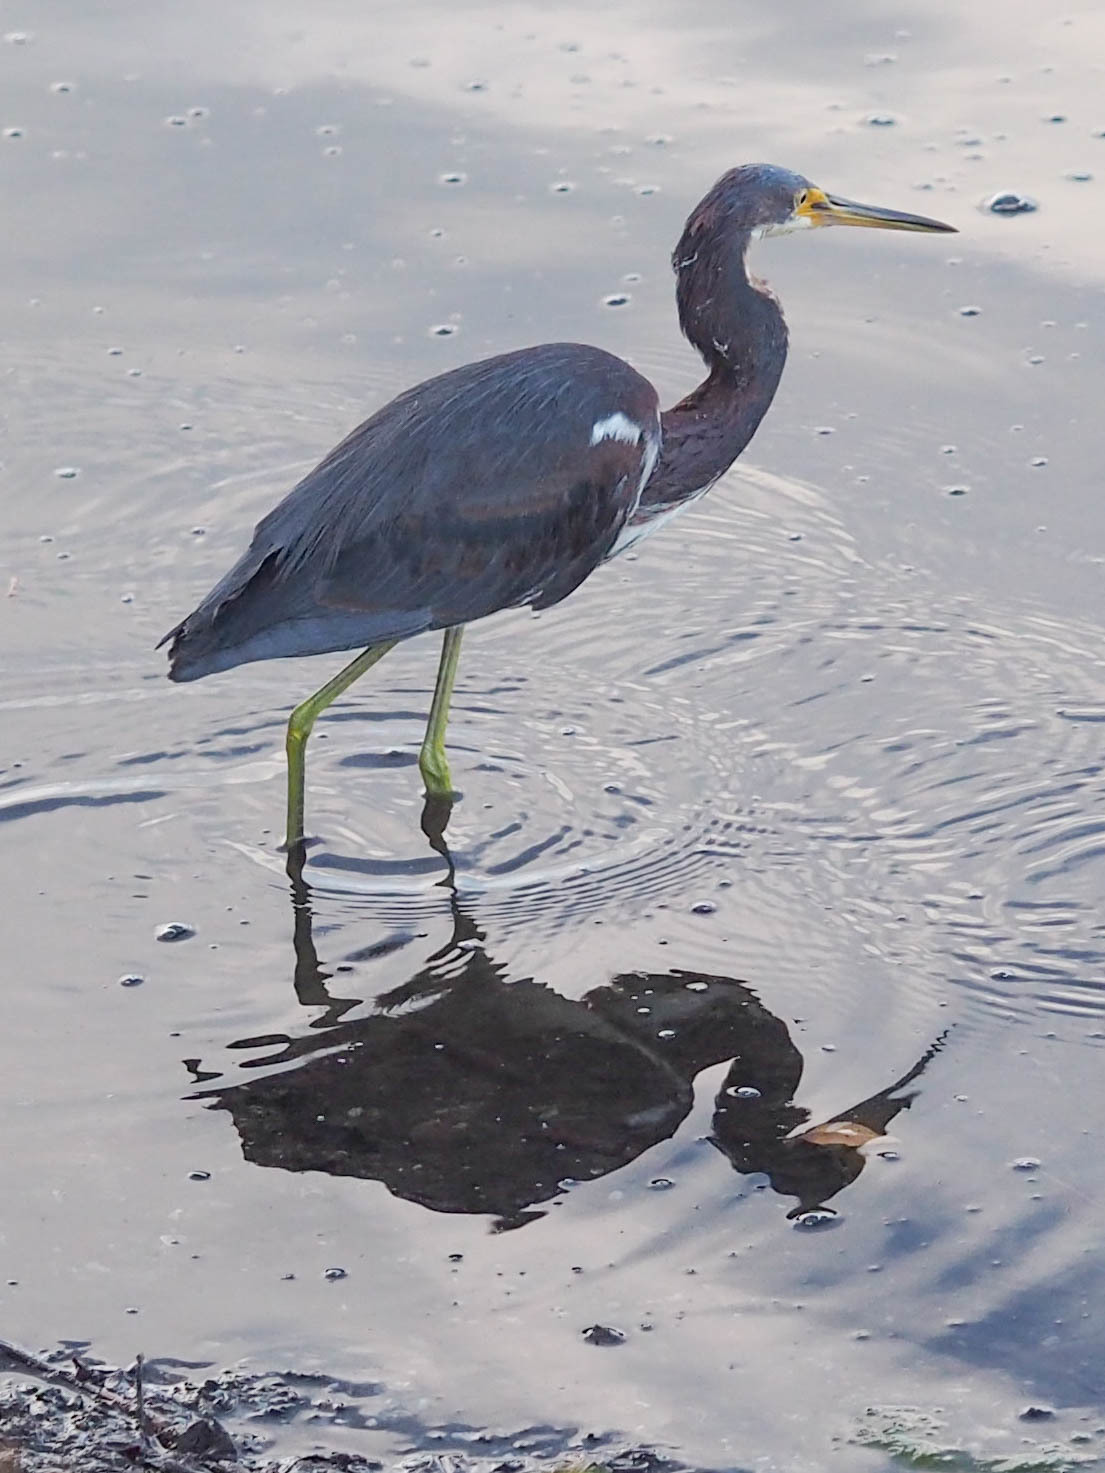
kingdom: Animalia
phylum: Chordata
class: Aves
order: Pelecaniformes
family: Ardeidae
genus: Egretta
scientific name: Egretta tricolor
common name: Tricolored heron
